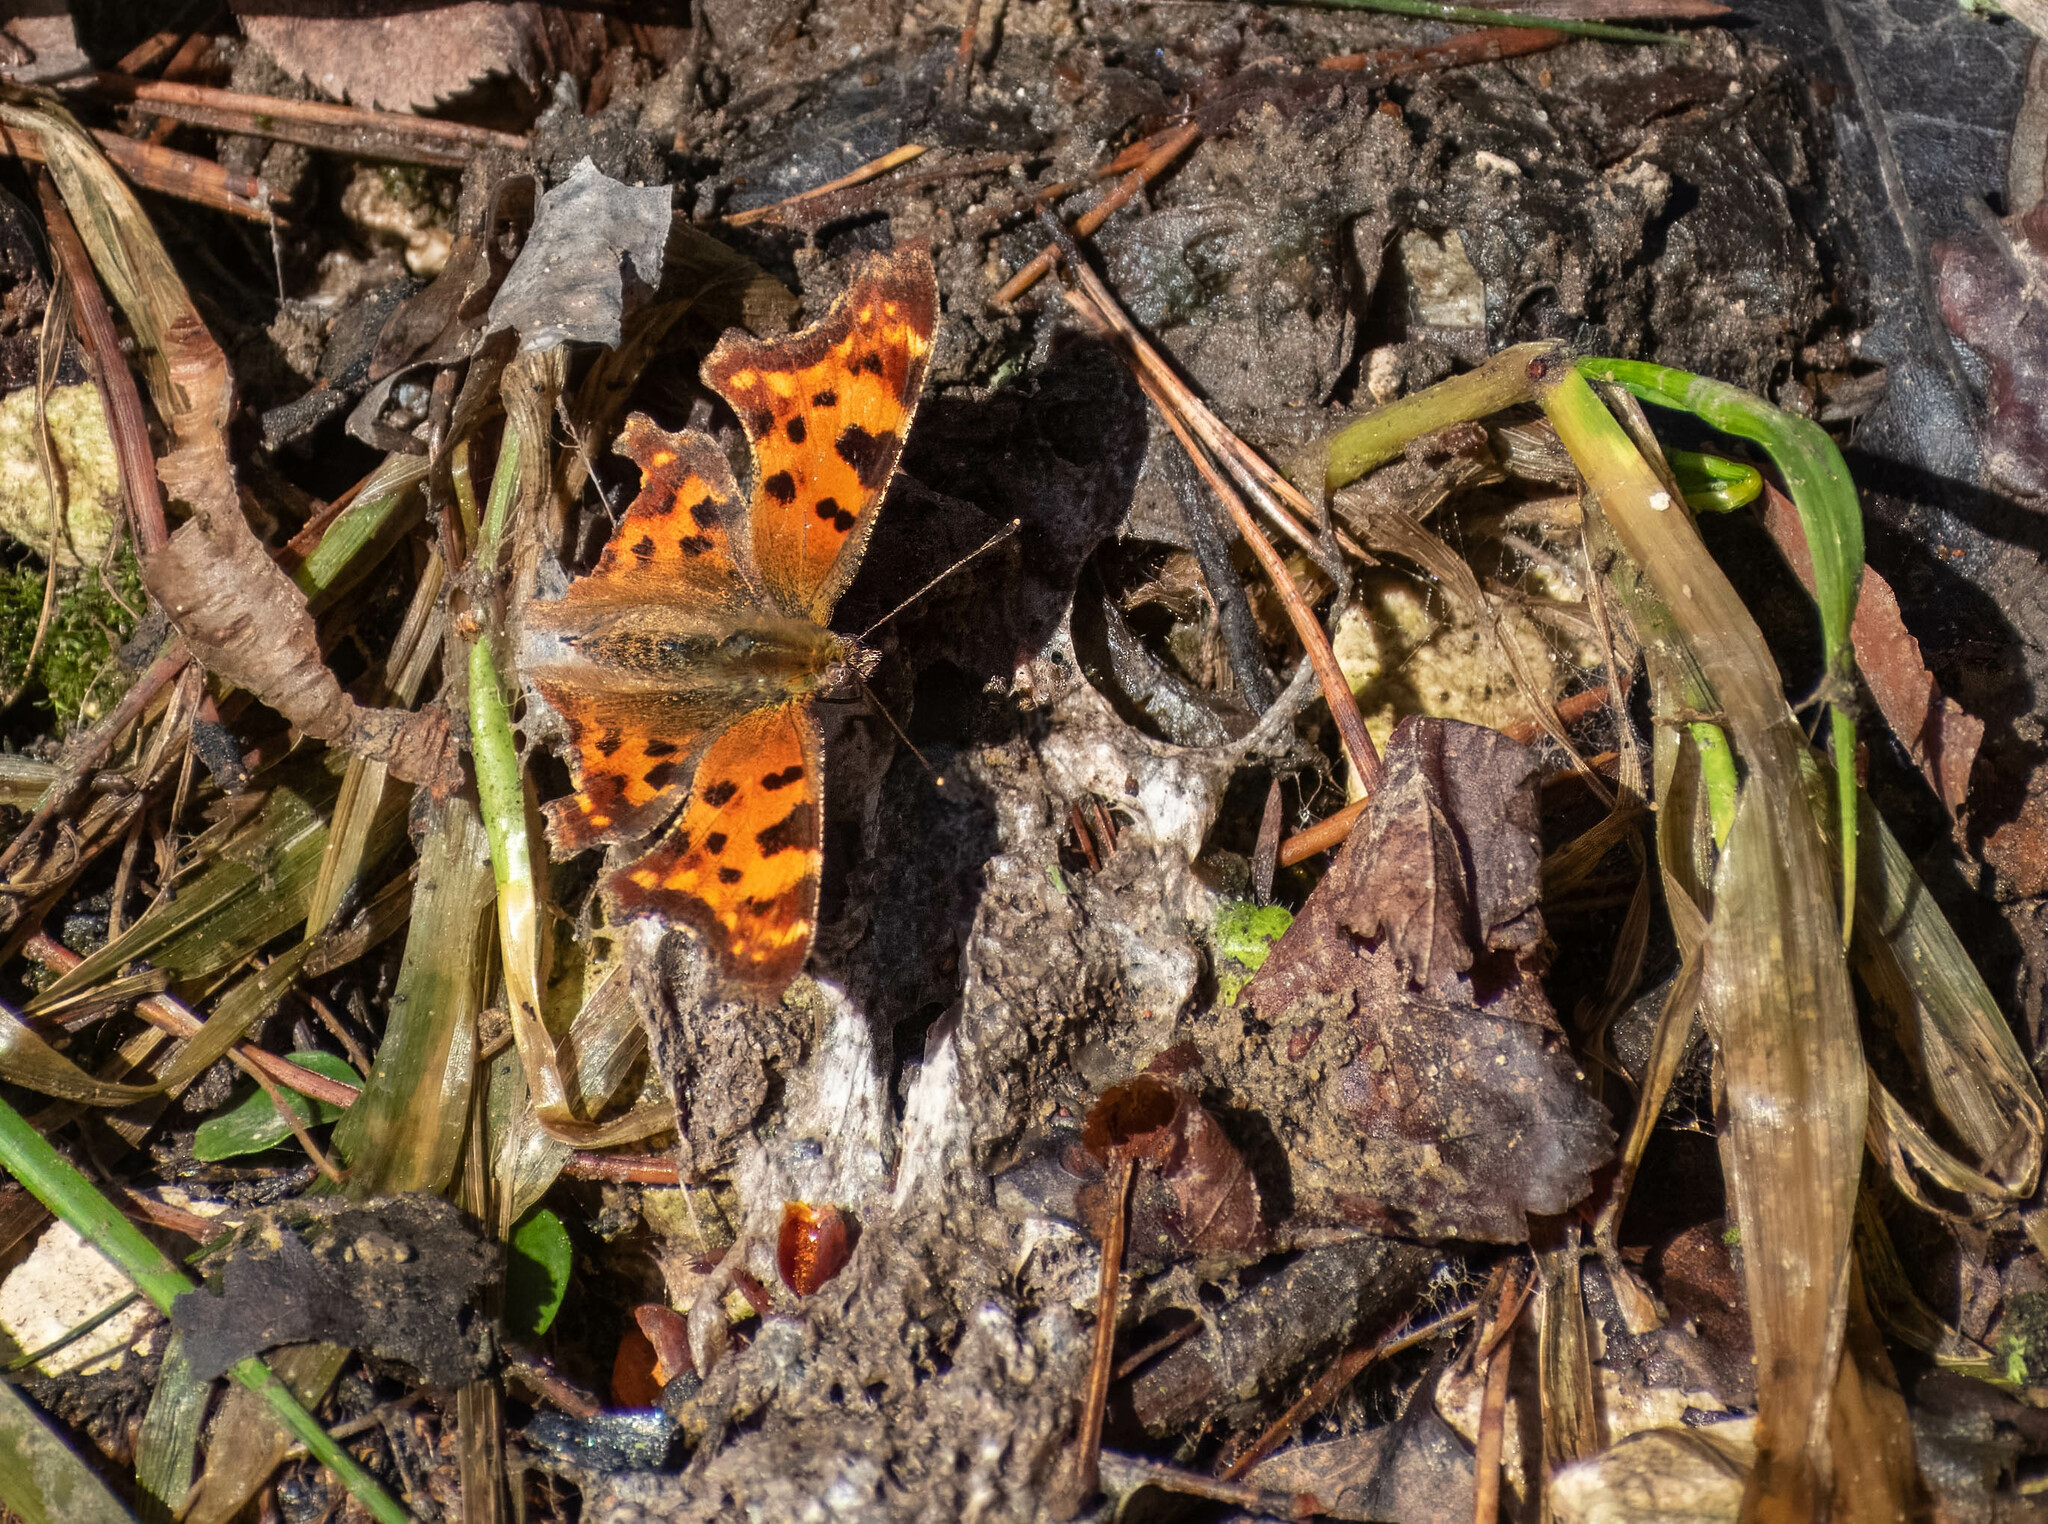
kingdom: Animalia
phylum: Arthropoda
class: Insecta
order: Lepidoptera
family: Nymphalidae
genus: Polygonia
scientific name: Polygonia c-album
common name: Comma
